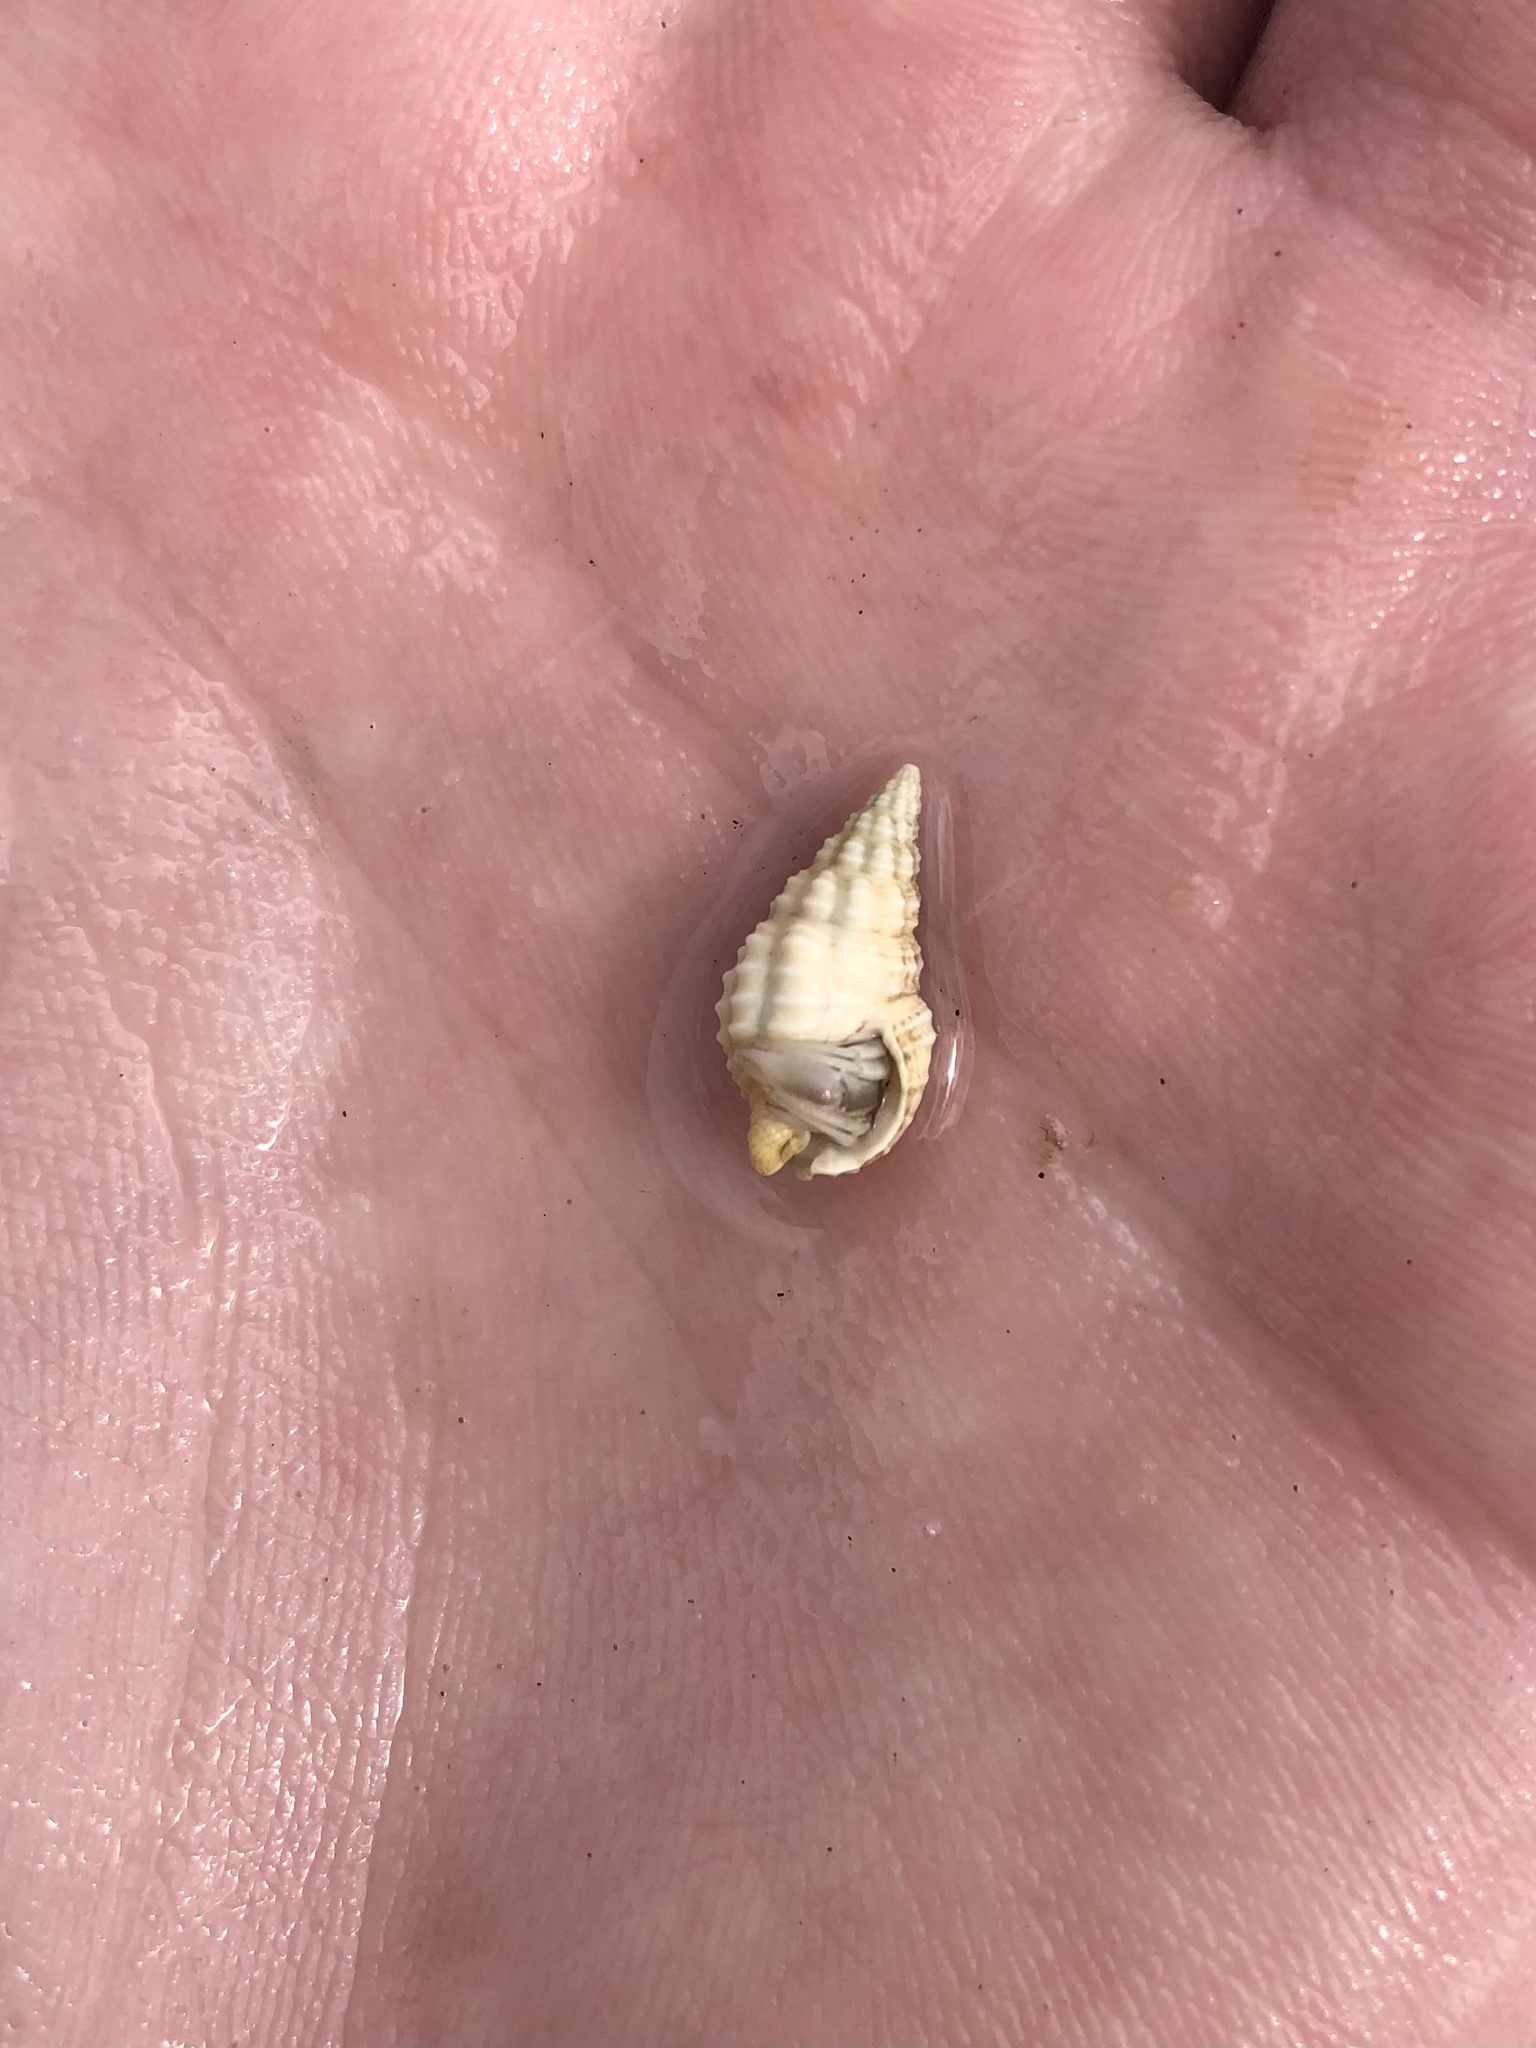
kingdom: Animalia
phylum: Mollusca
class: Gastropoda
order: Neogastropoda
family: Nassariidae
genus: Nassarius
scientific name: Nassarius acutus
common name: Sharp nassa
